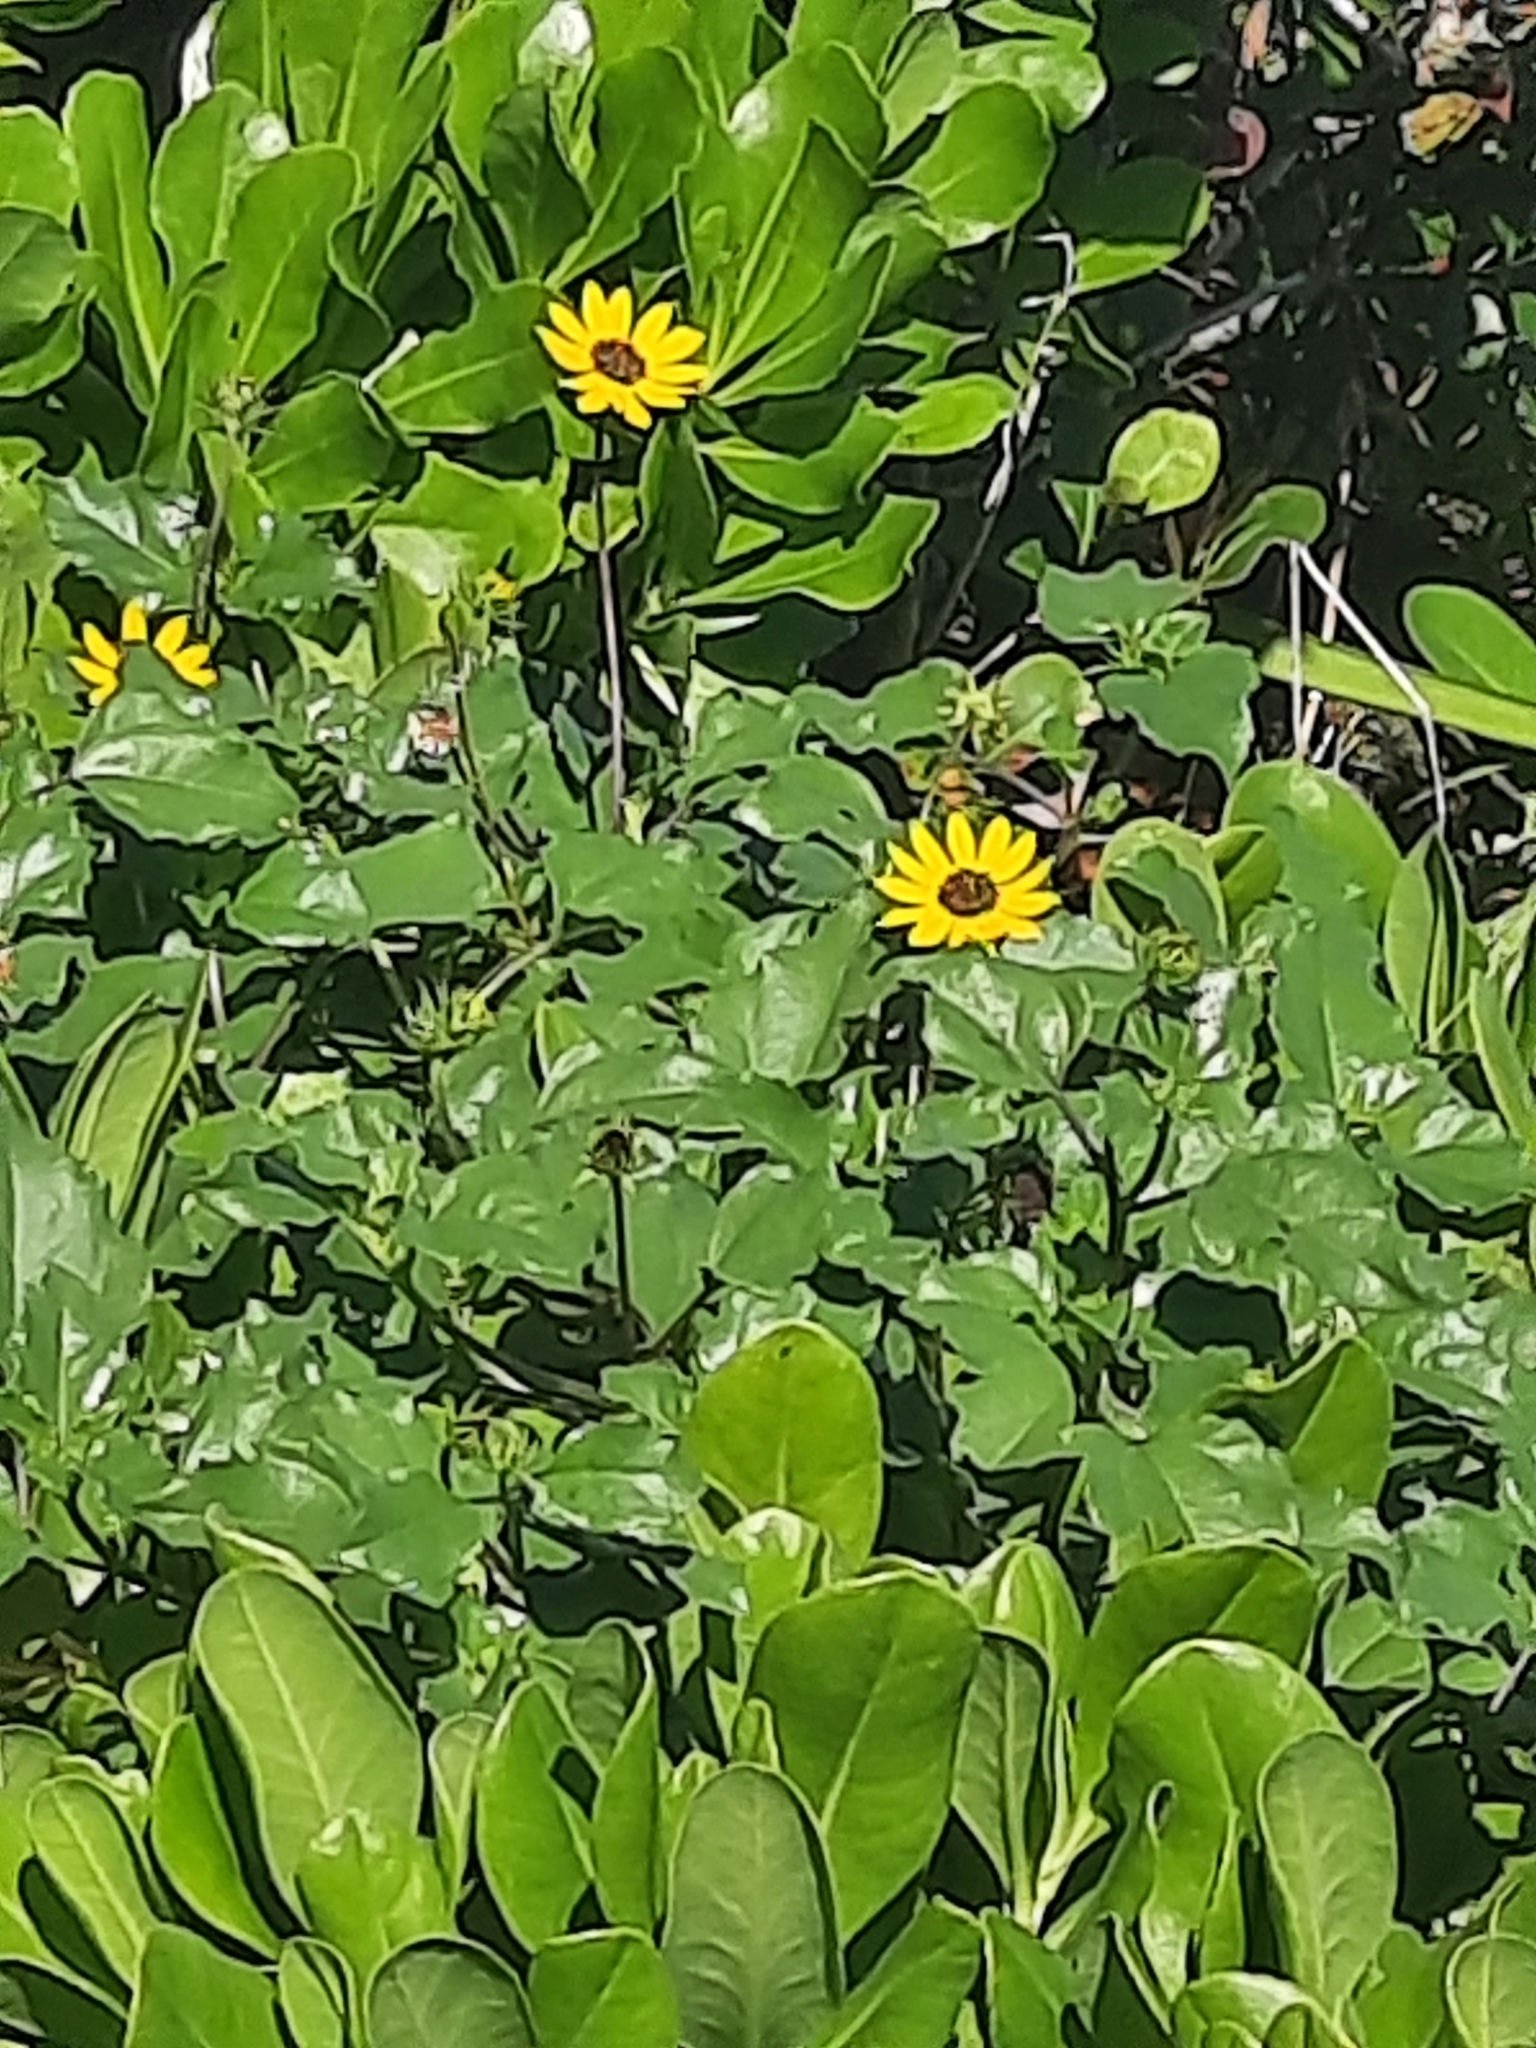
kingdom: Plantae
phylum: Tracheophyta
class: Magnoliopsida
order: Asterales
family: Asteraceae
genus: Helianthus
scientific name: Helianthus debilis
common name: Weak sunflower
